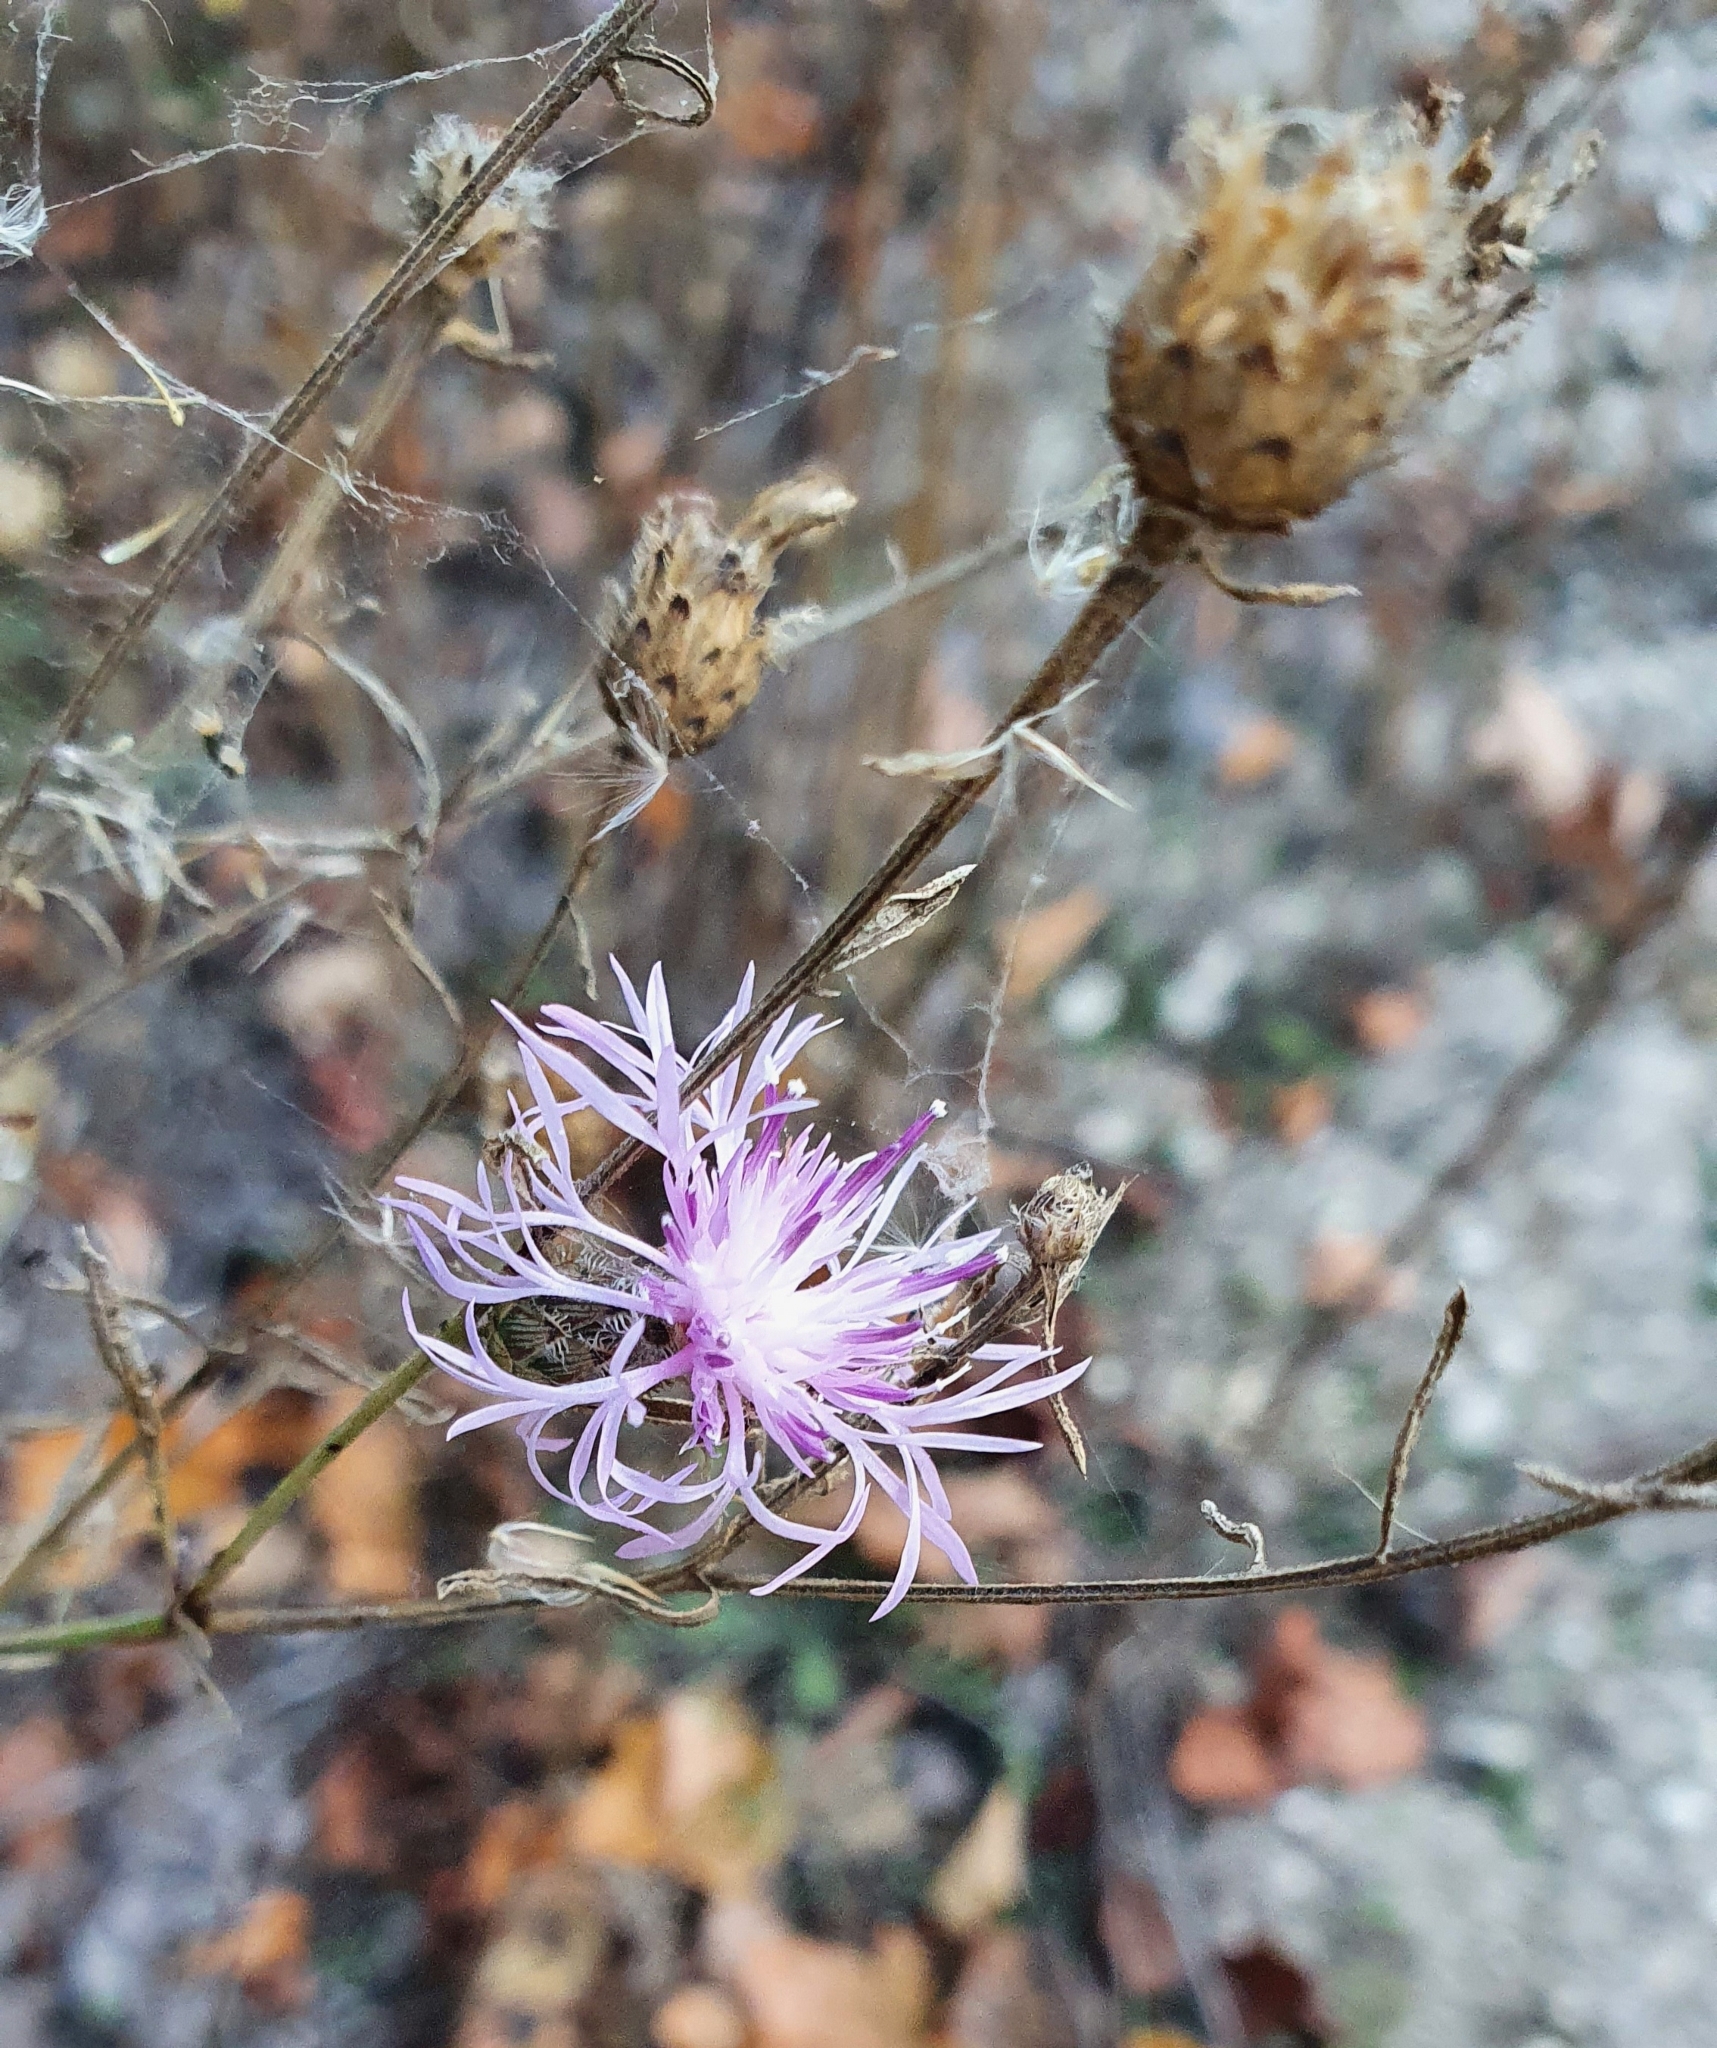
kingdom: Plantae
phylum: Tracheophyta
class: Magnoliopsida
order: Asterales
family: Asteraceae
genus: Centaurea
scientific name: Centaurea stoebe
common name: Spotted knapweed
